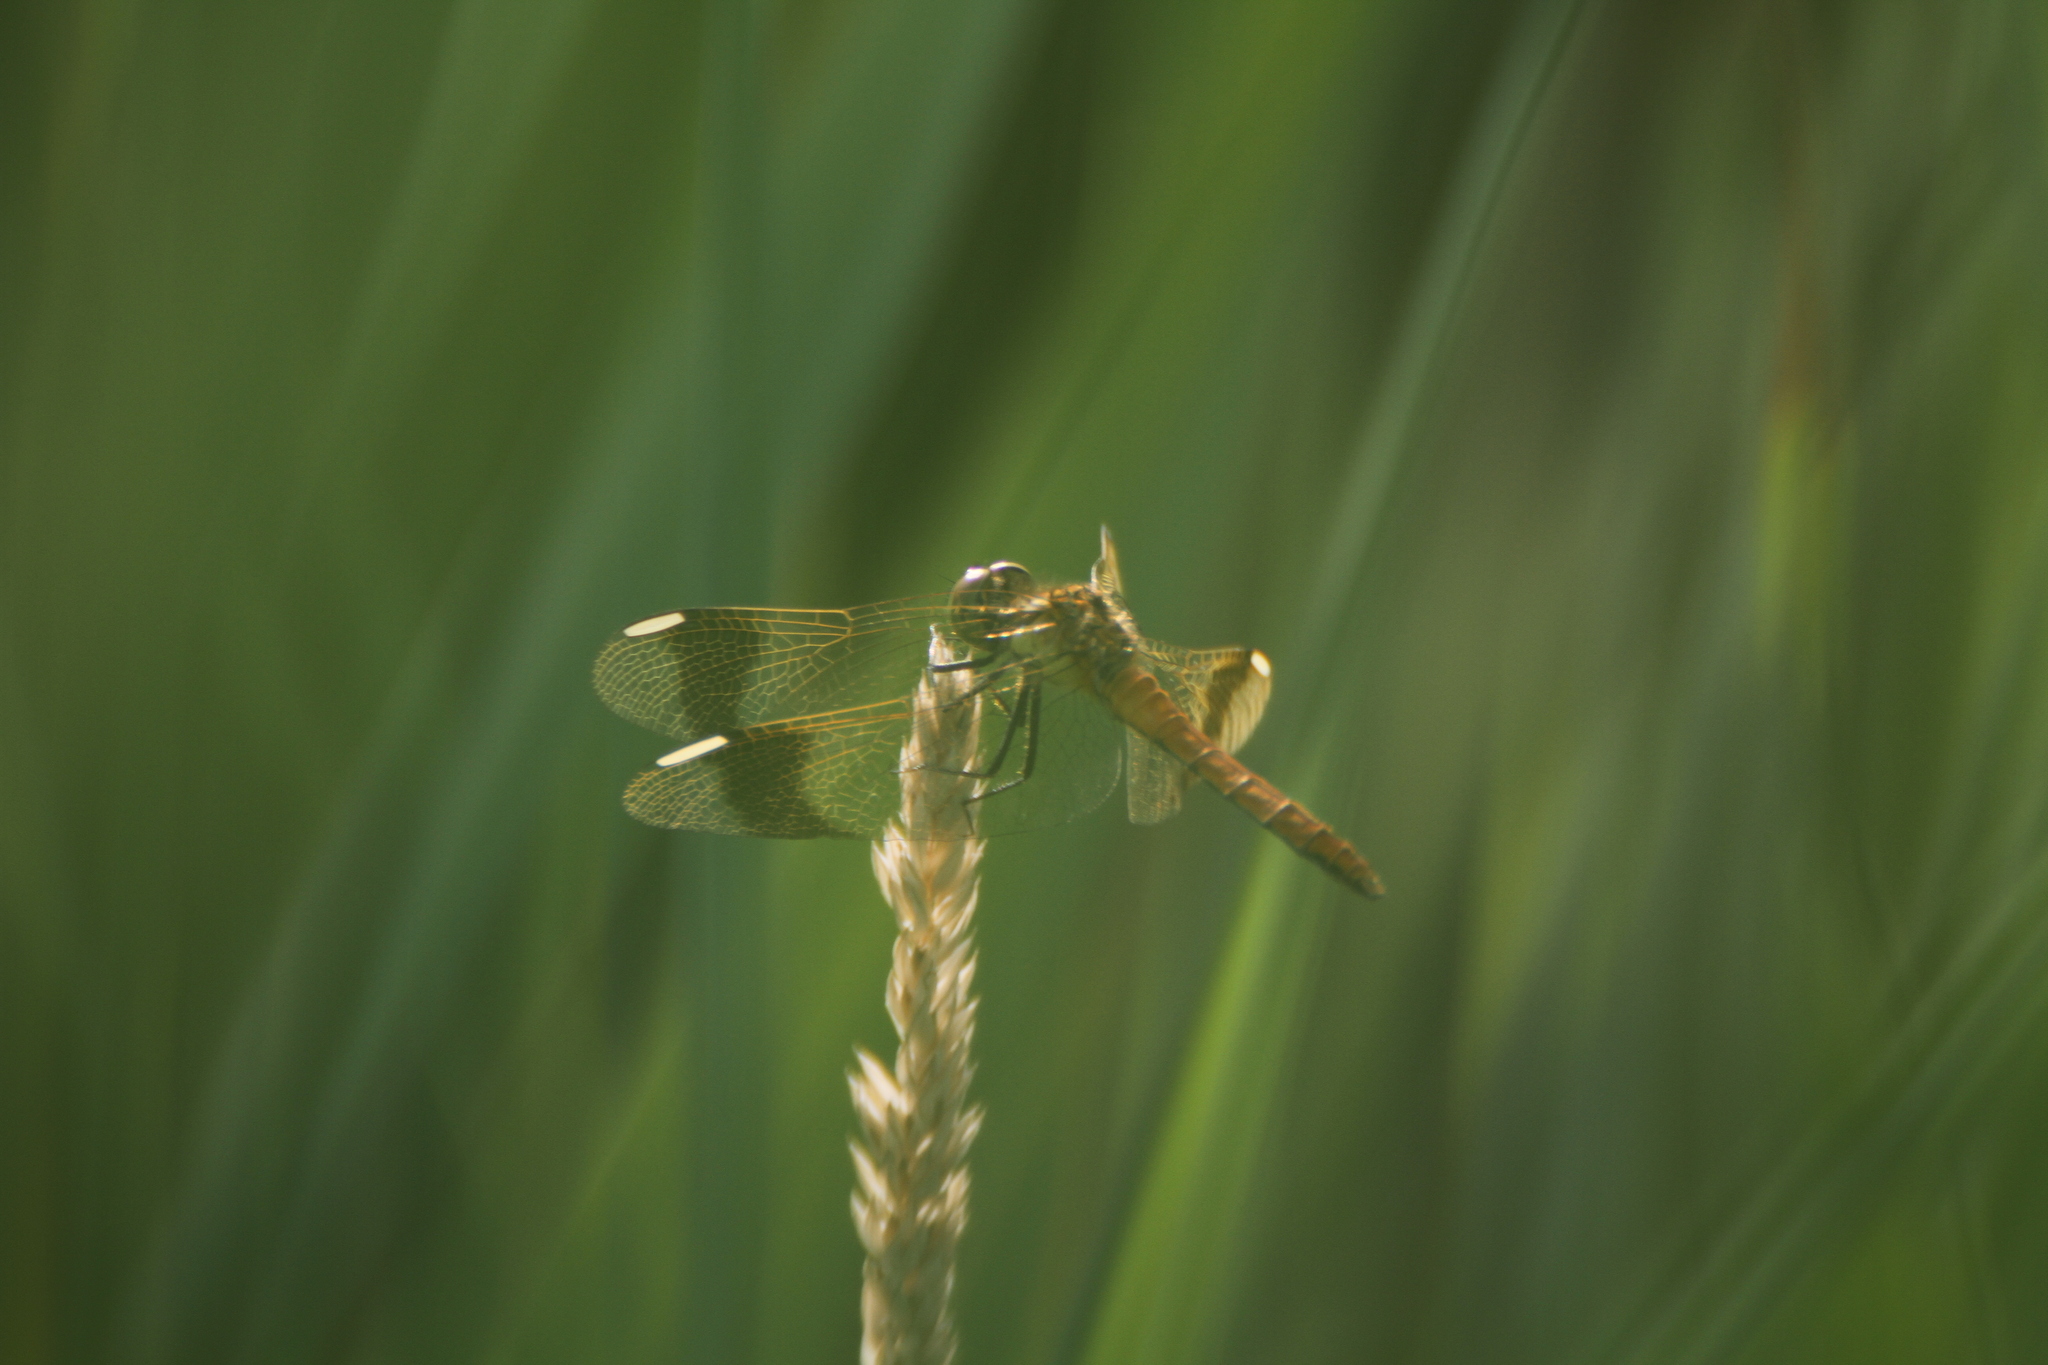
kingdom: Animalia
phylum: Arthropoda
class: Insecta
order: Odonata
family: Libellulidae
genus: Sympetrum
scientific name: Sympetrum pedemontanum
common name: Banded darter
